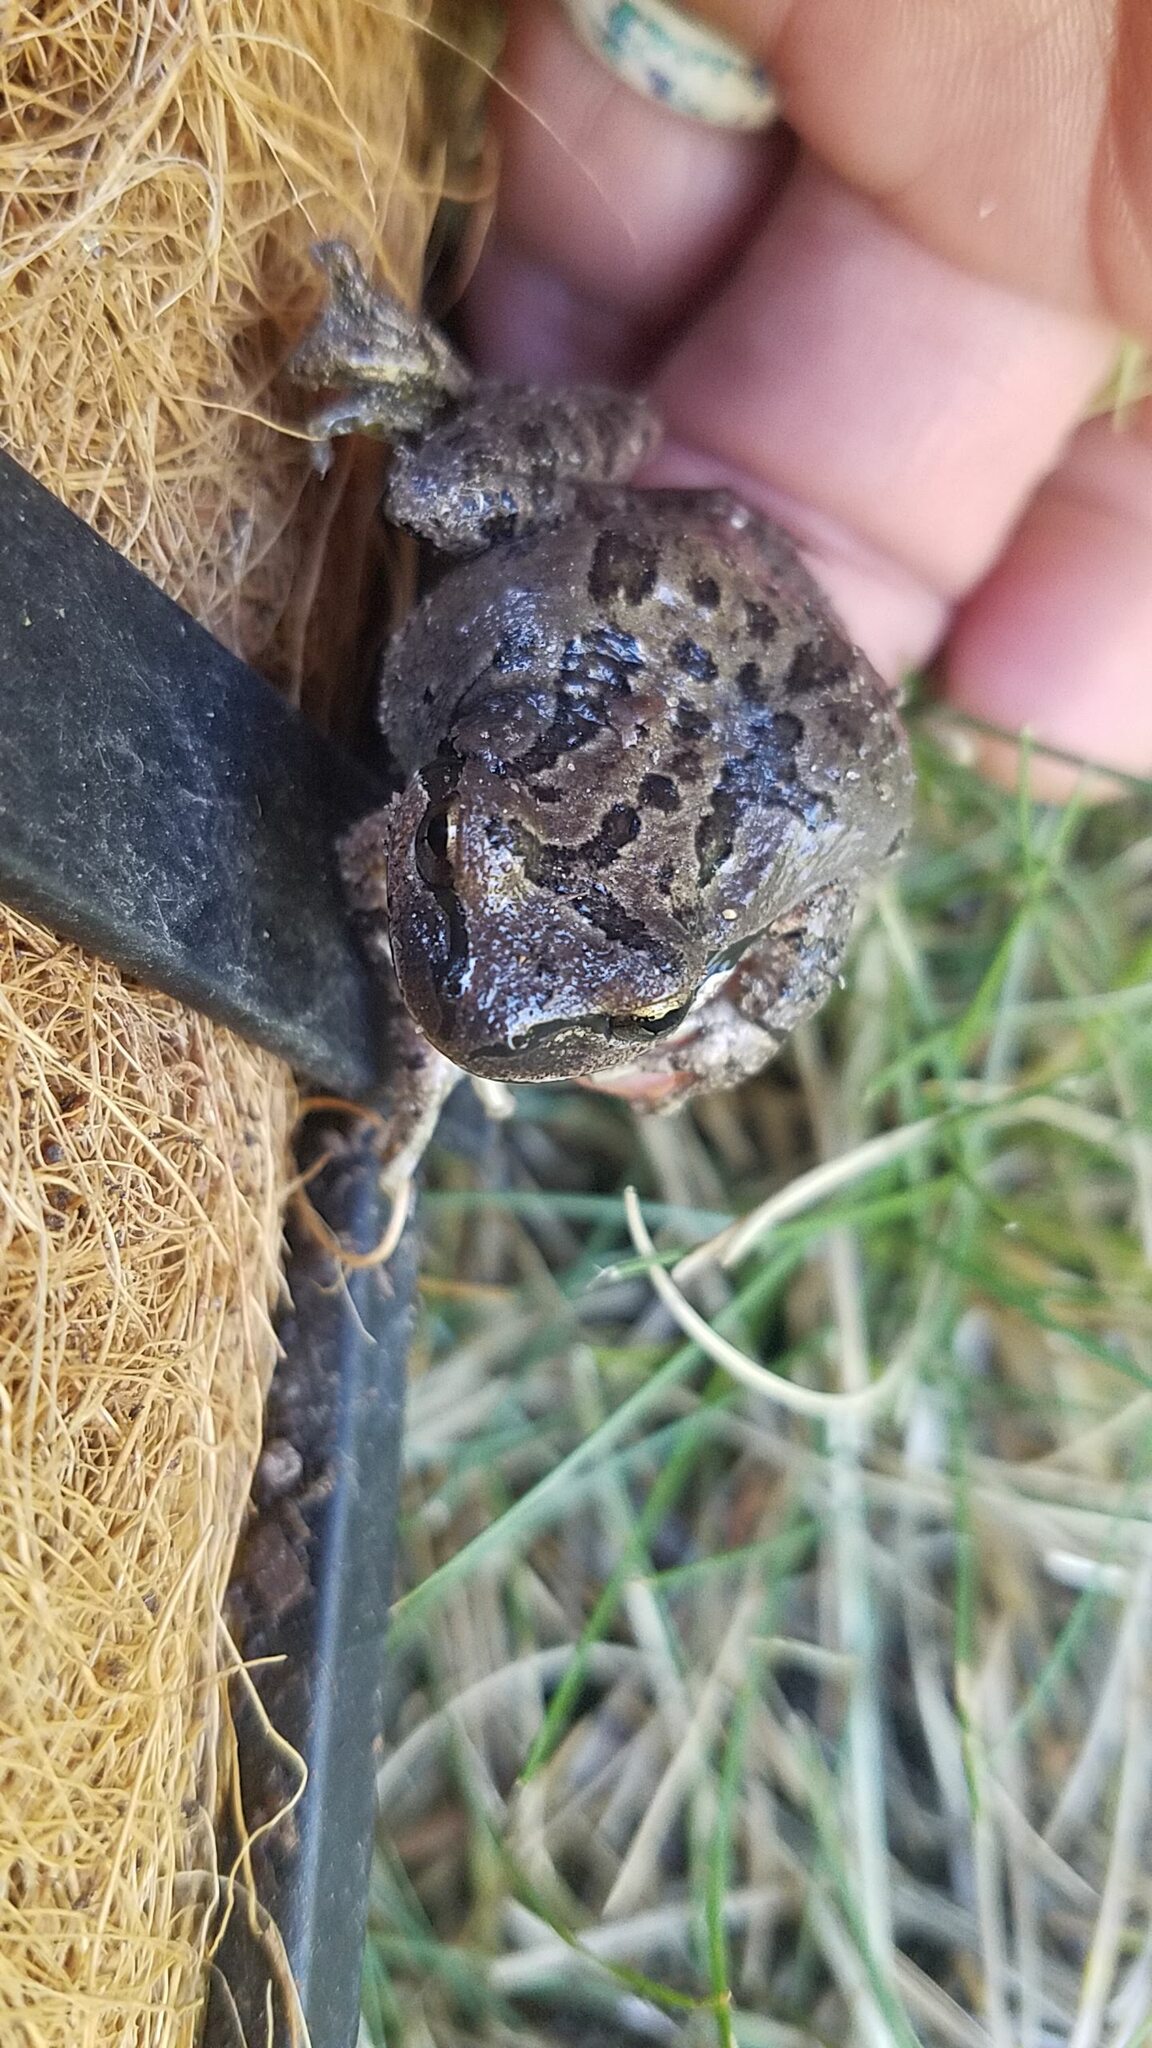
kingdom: Animalia
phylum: Chordata
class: Amphibia
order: Anura
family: Hylidae
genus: Pseudacris
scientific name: Pseudacris regilla
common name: Pacific chorus frog
